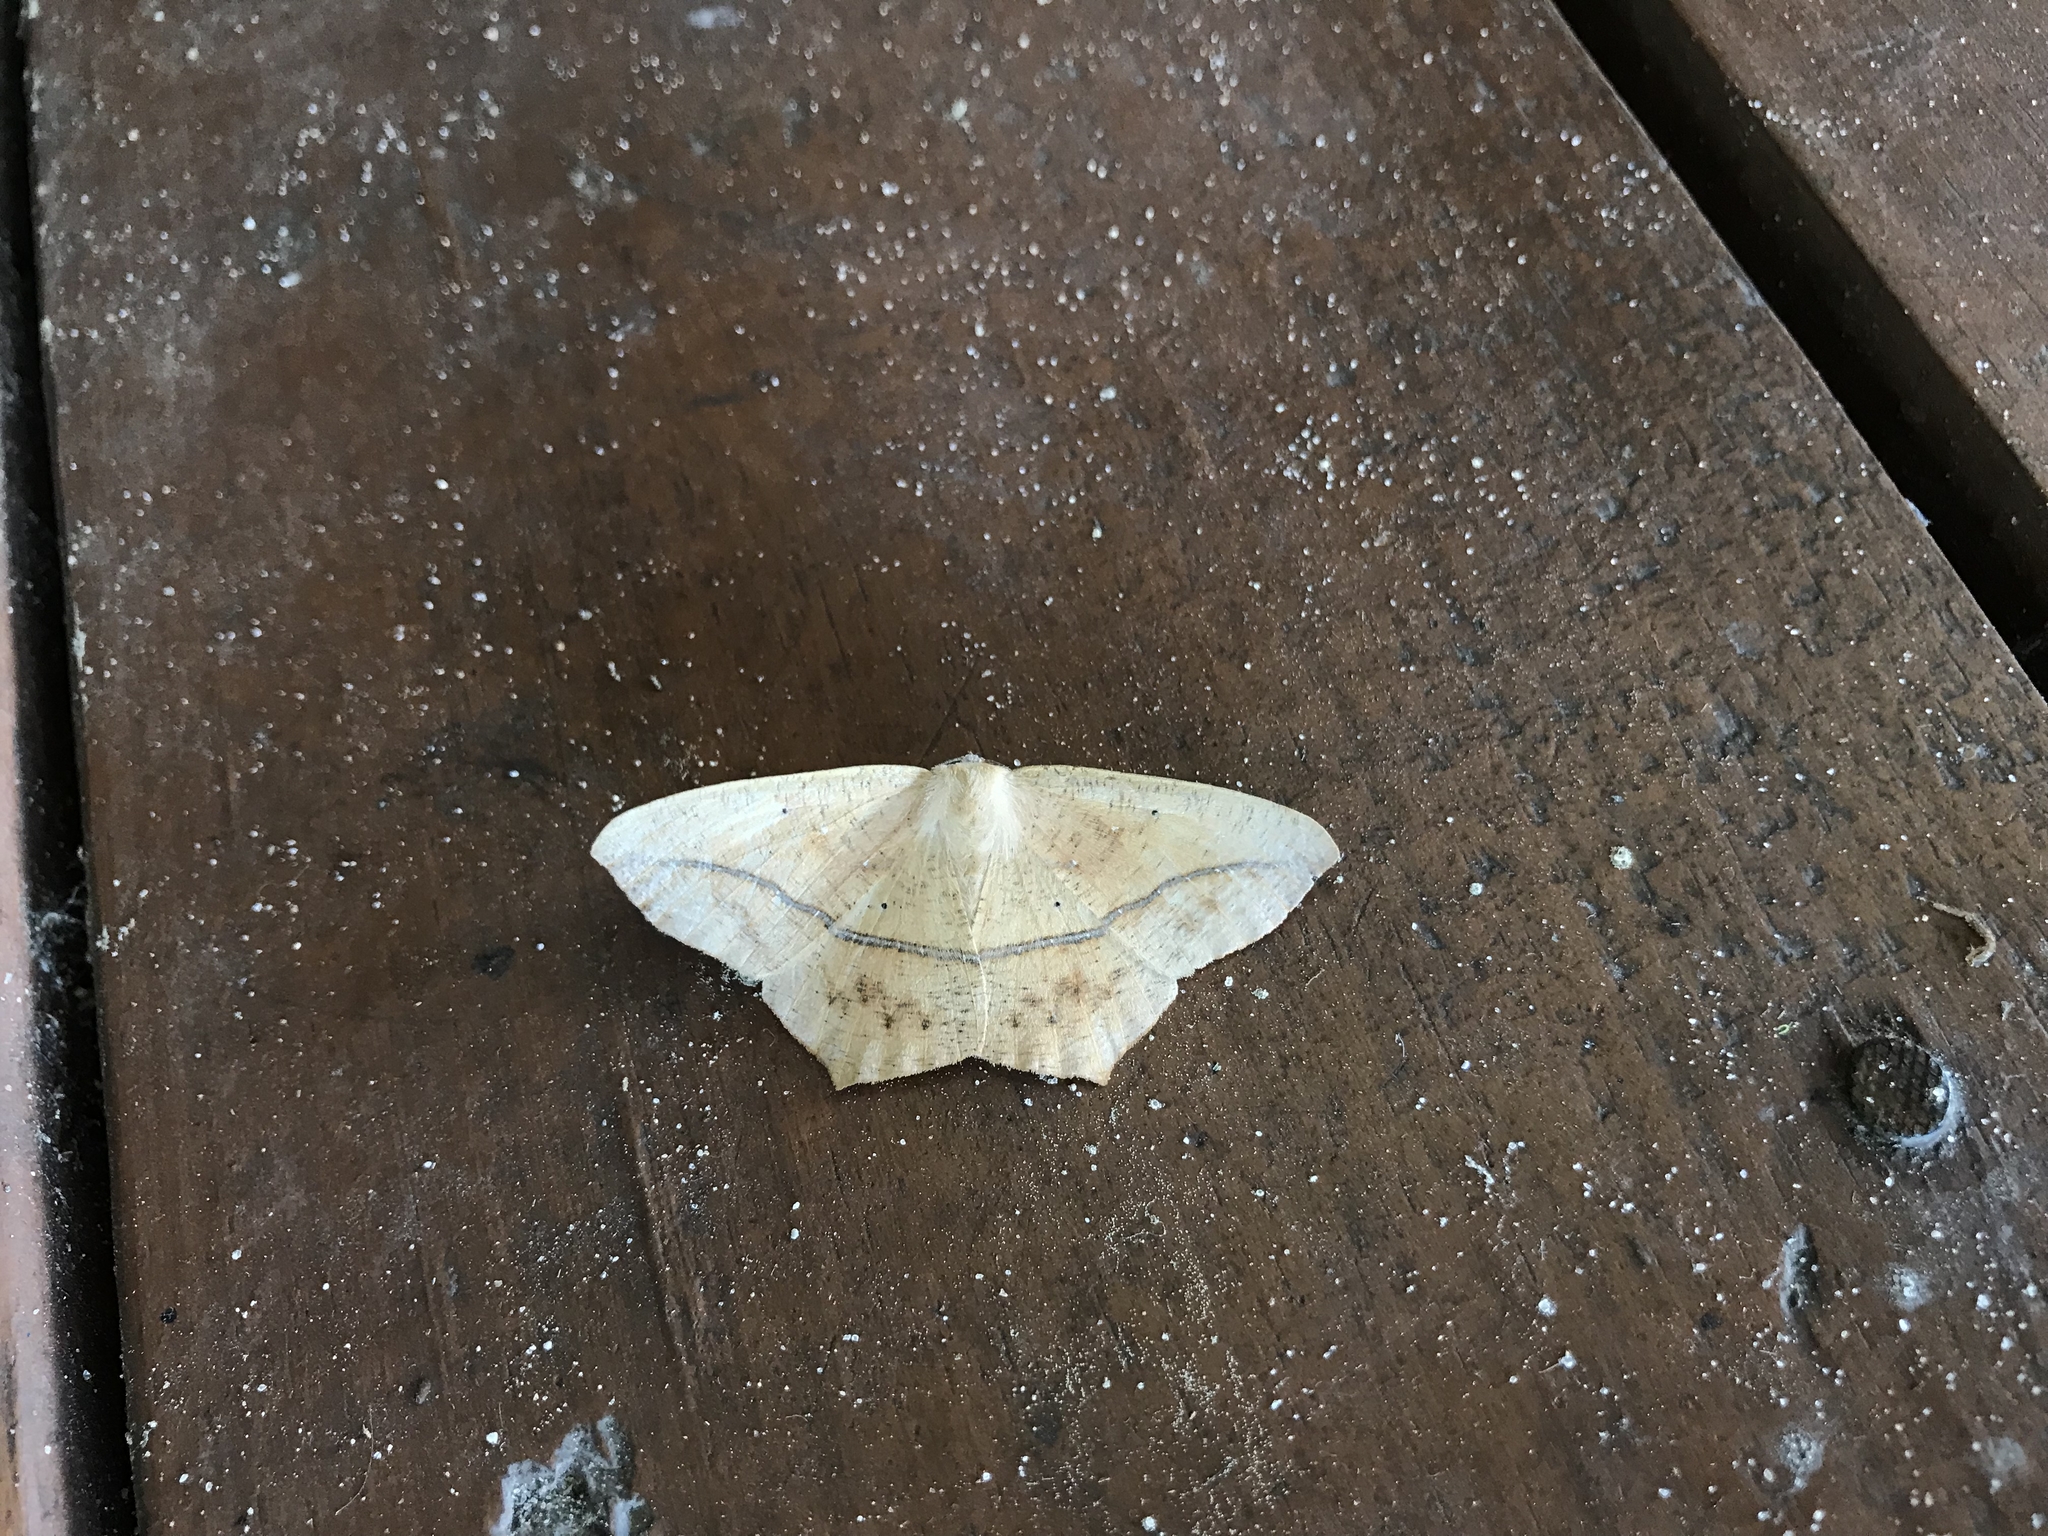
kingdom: Animalia
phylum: Arthropoda
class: Insecta
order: Lepidoptera
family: Geometridae
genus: Prochoerodes
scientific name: Prochoerodes lineola
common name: Large maple spanworm
